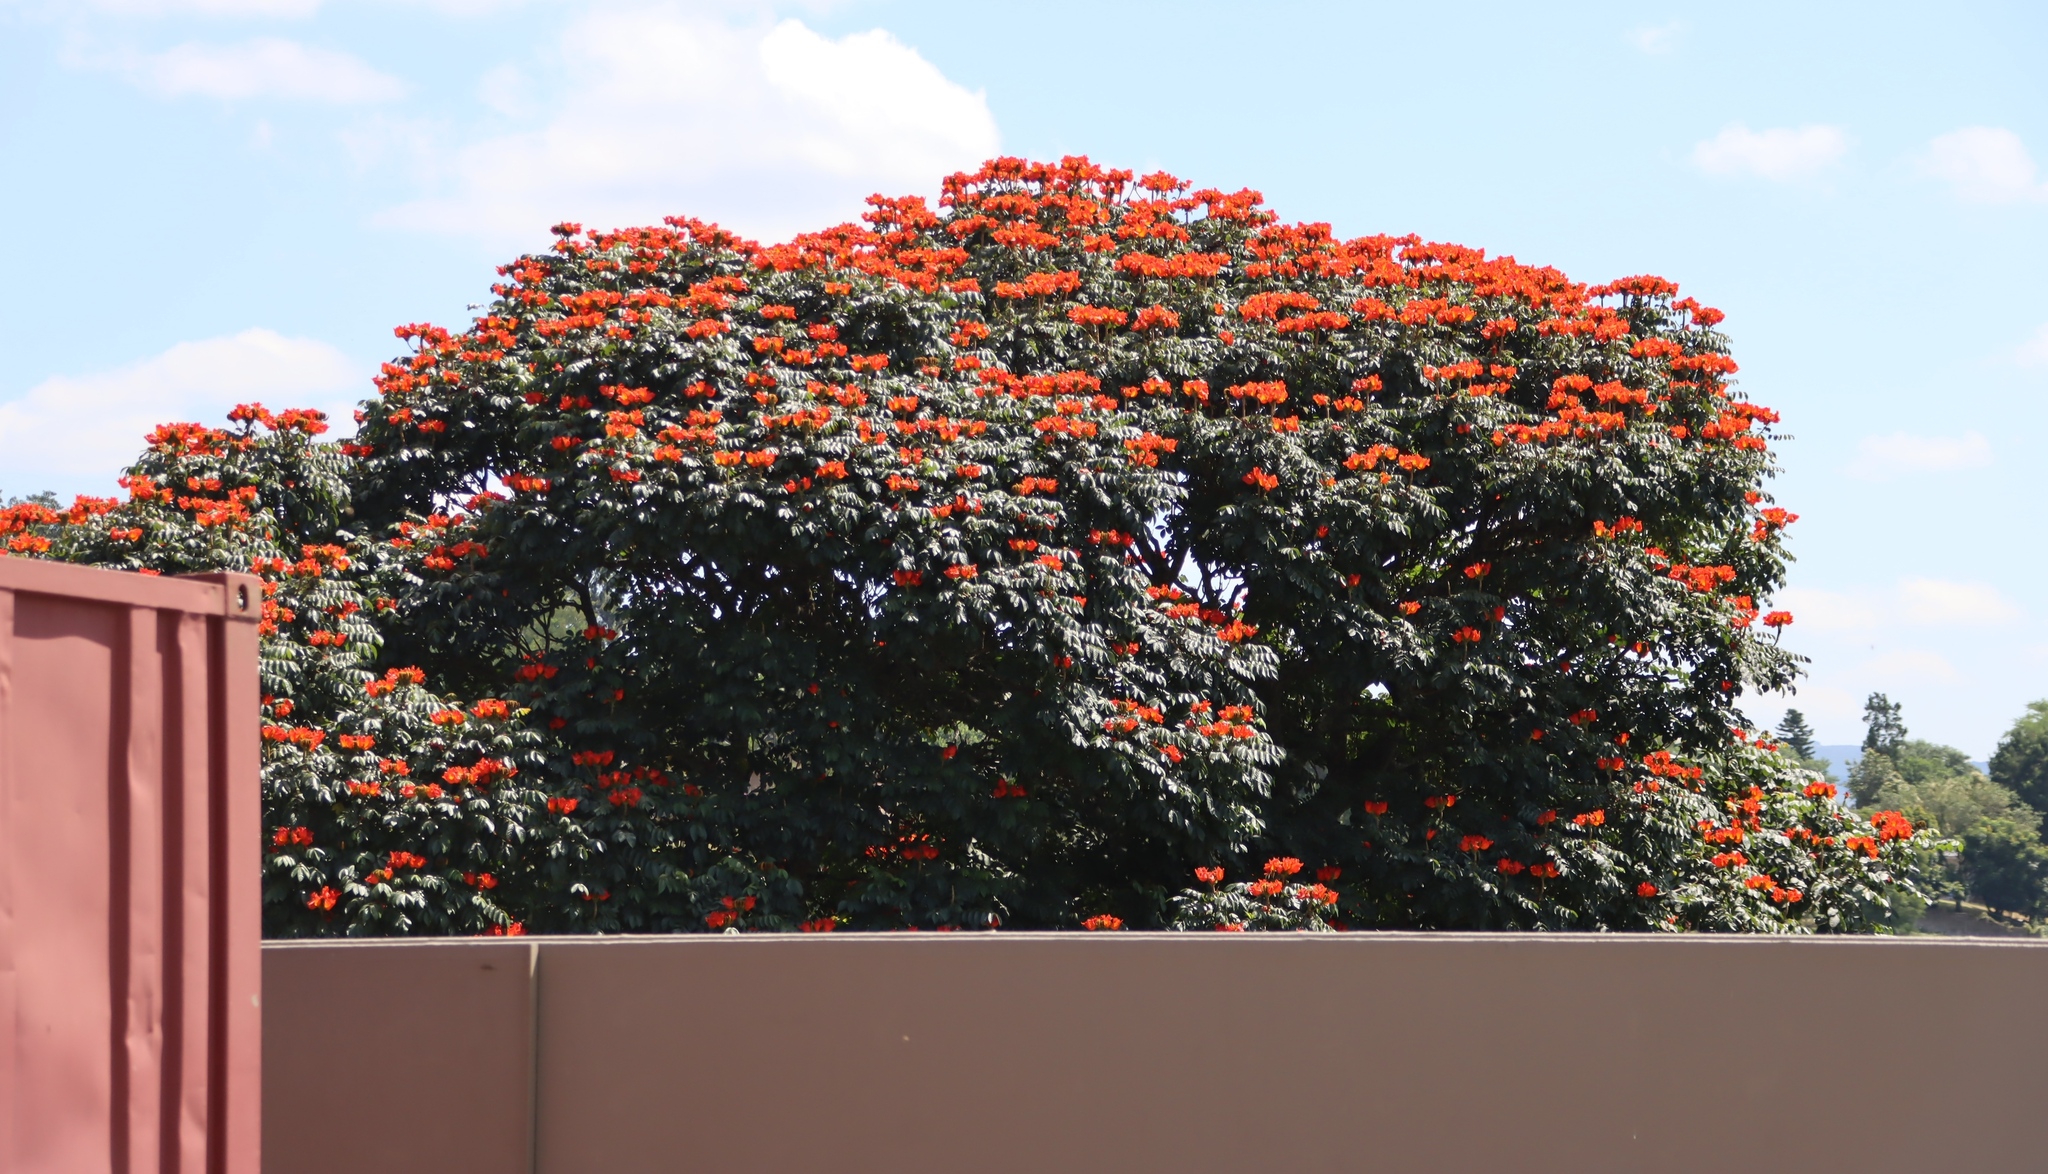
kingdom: Plantae
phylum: Tracheophyta
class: Magnoliopsida
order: Lamiales
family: Bignoniaceae
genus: Spathodea
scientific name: Spathodea campanulata
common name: African tuliptree
